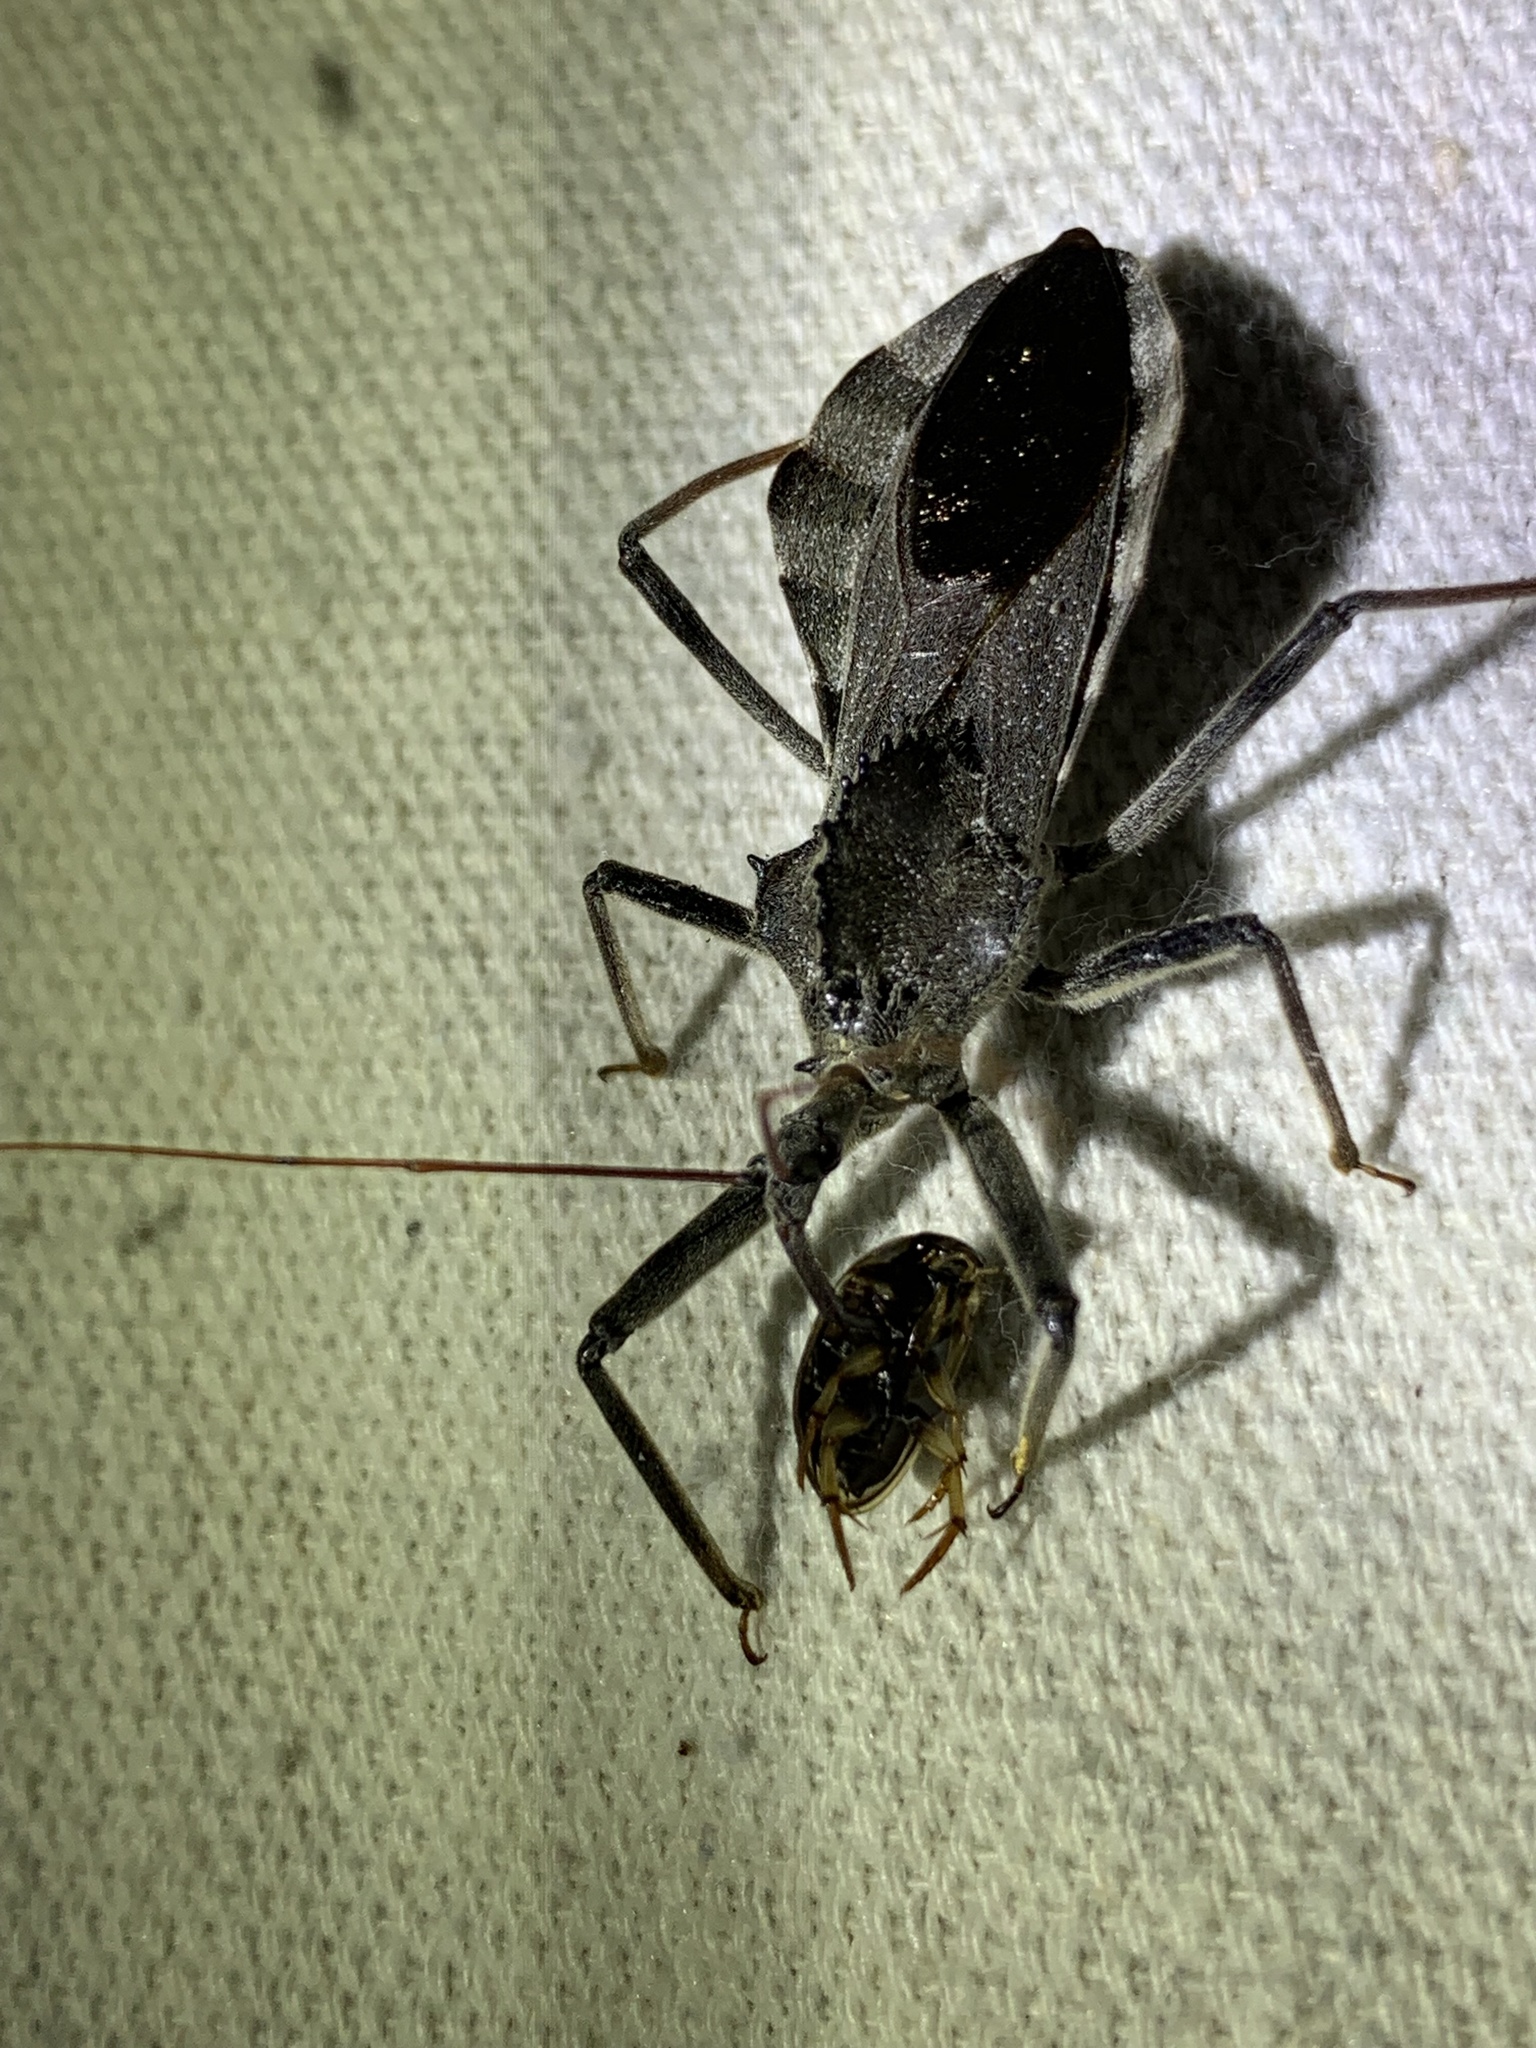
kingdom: Animalia
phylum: Arthropoda
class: Insecta
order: Hemiptera
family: Reduviidae
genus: Arilus
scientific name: Arilus cristatus
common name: North american wheel bug
